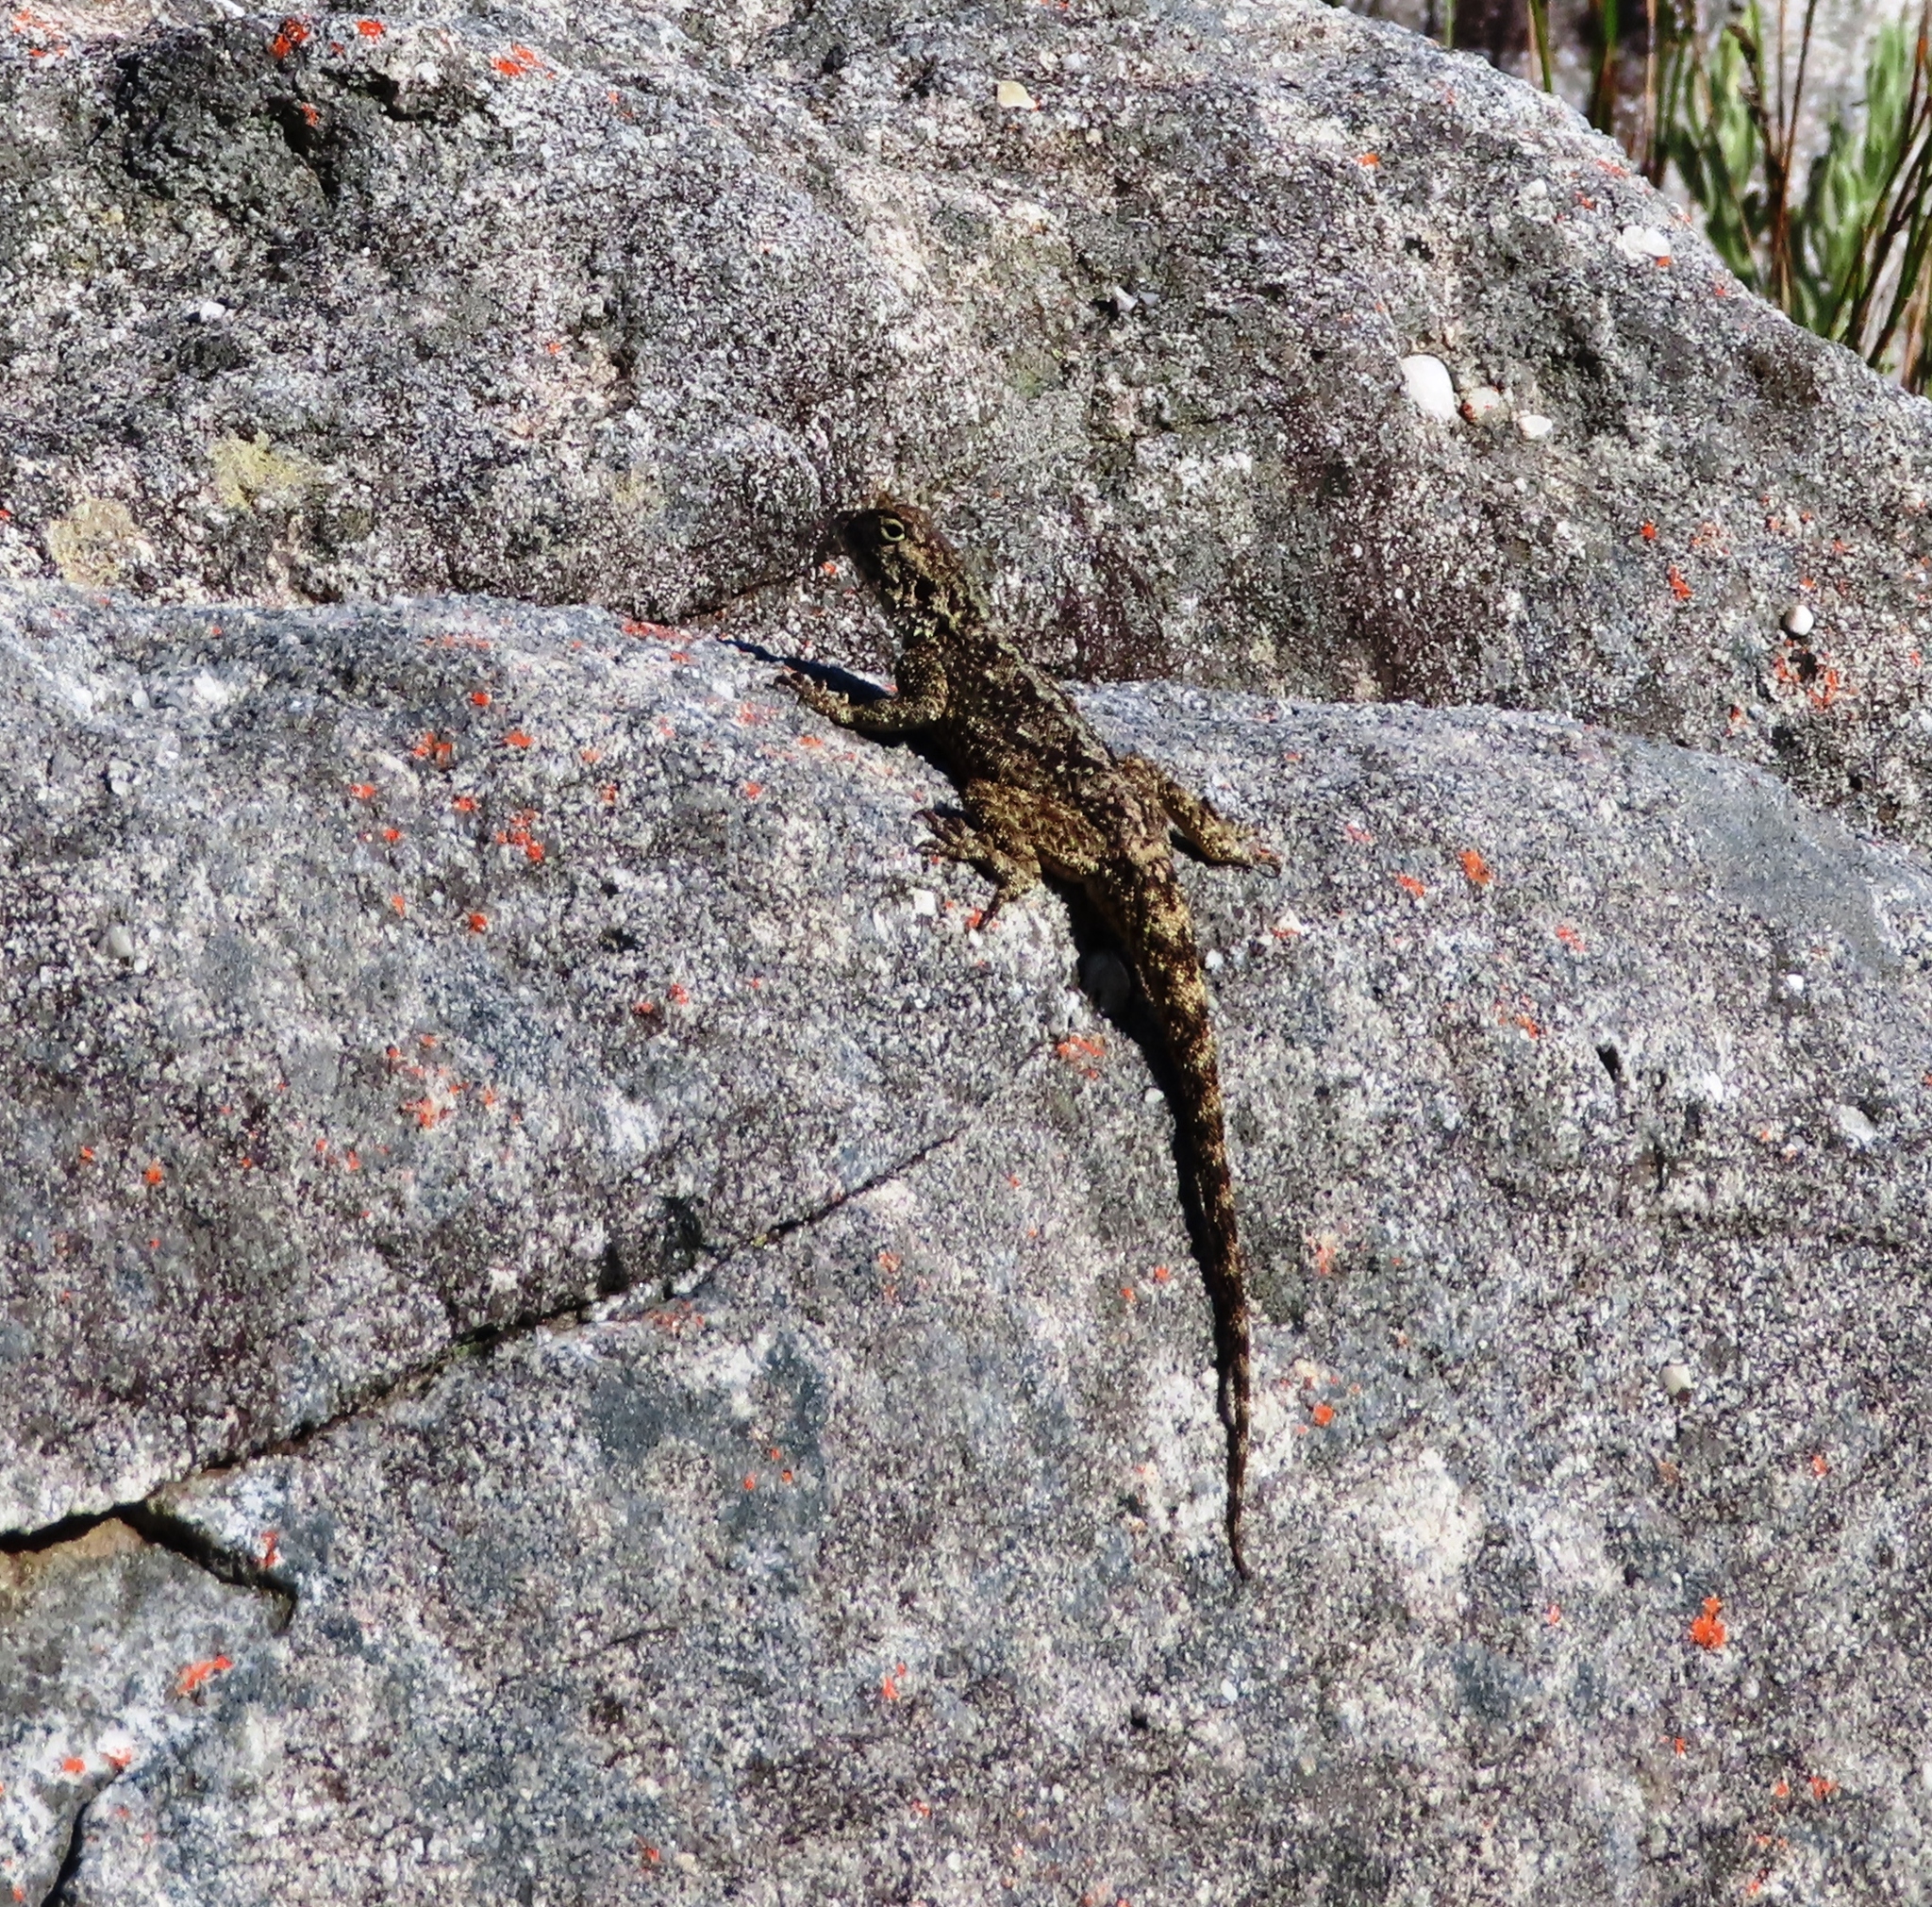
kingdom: Animalia
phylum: Chordata
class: Squamata
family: Agamidae
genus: Agama
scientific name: Agama atra
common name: Southern african rock agama
